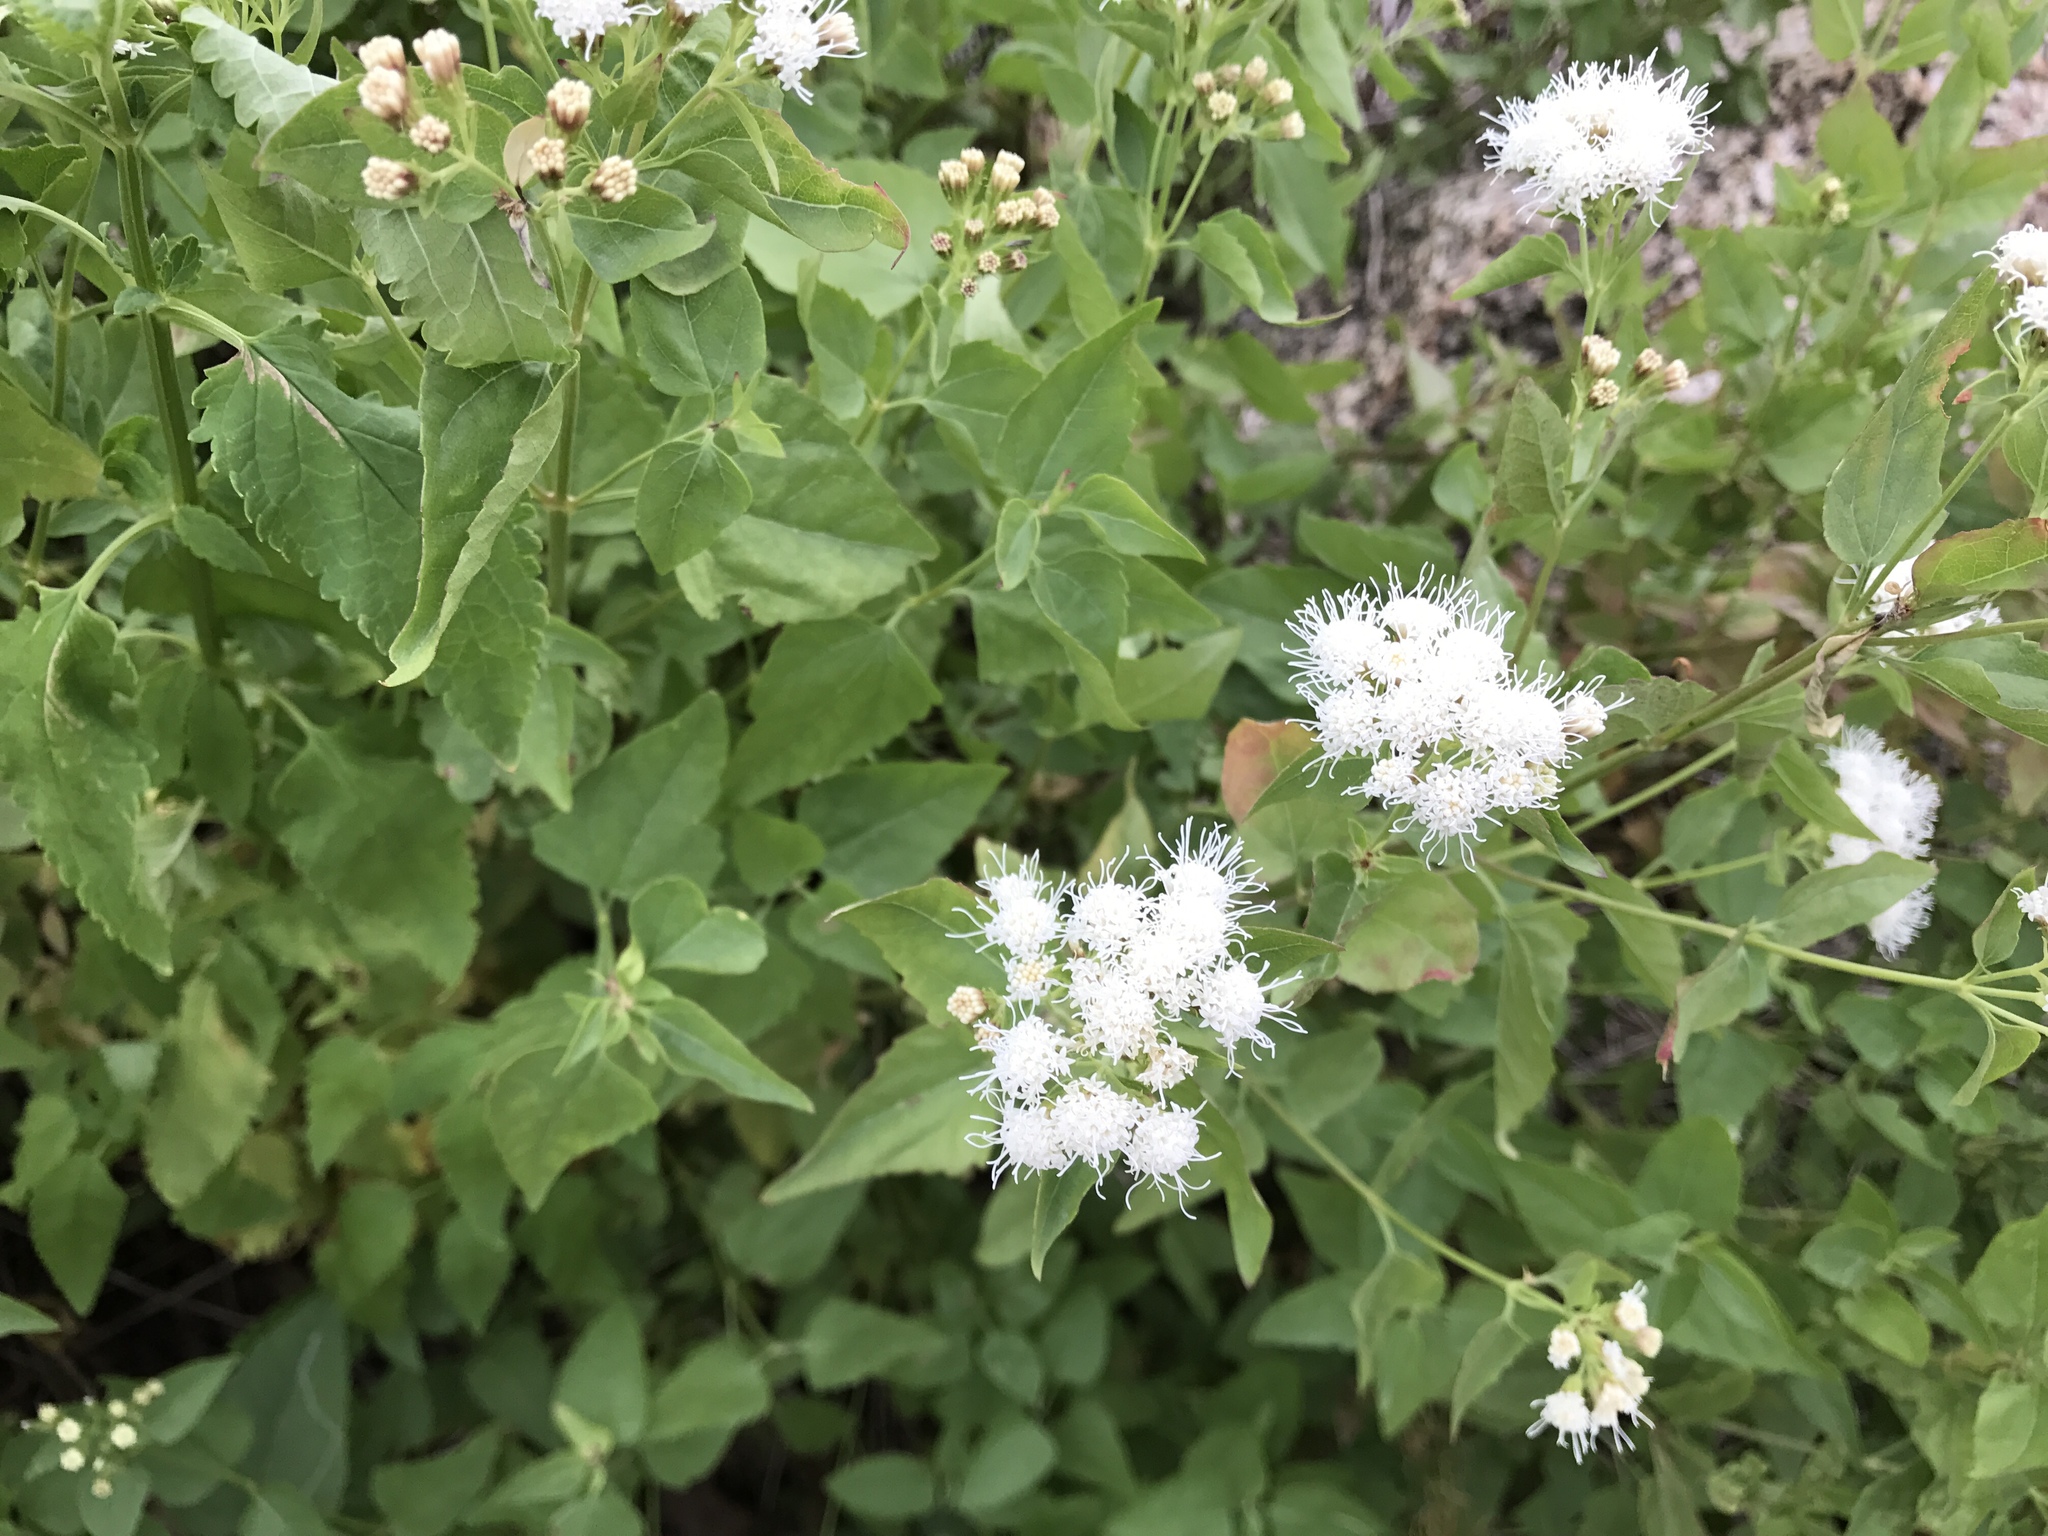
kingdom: Plantae
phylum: Tracheophyta
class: Magnoliopsida
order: Asterales
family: Asteraceae
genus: Ageratina
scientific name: Ageratina herbacea
